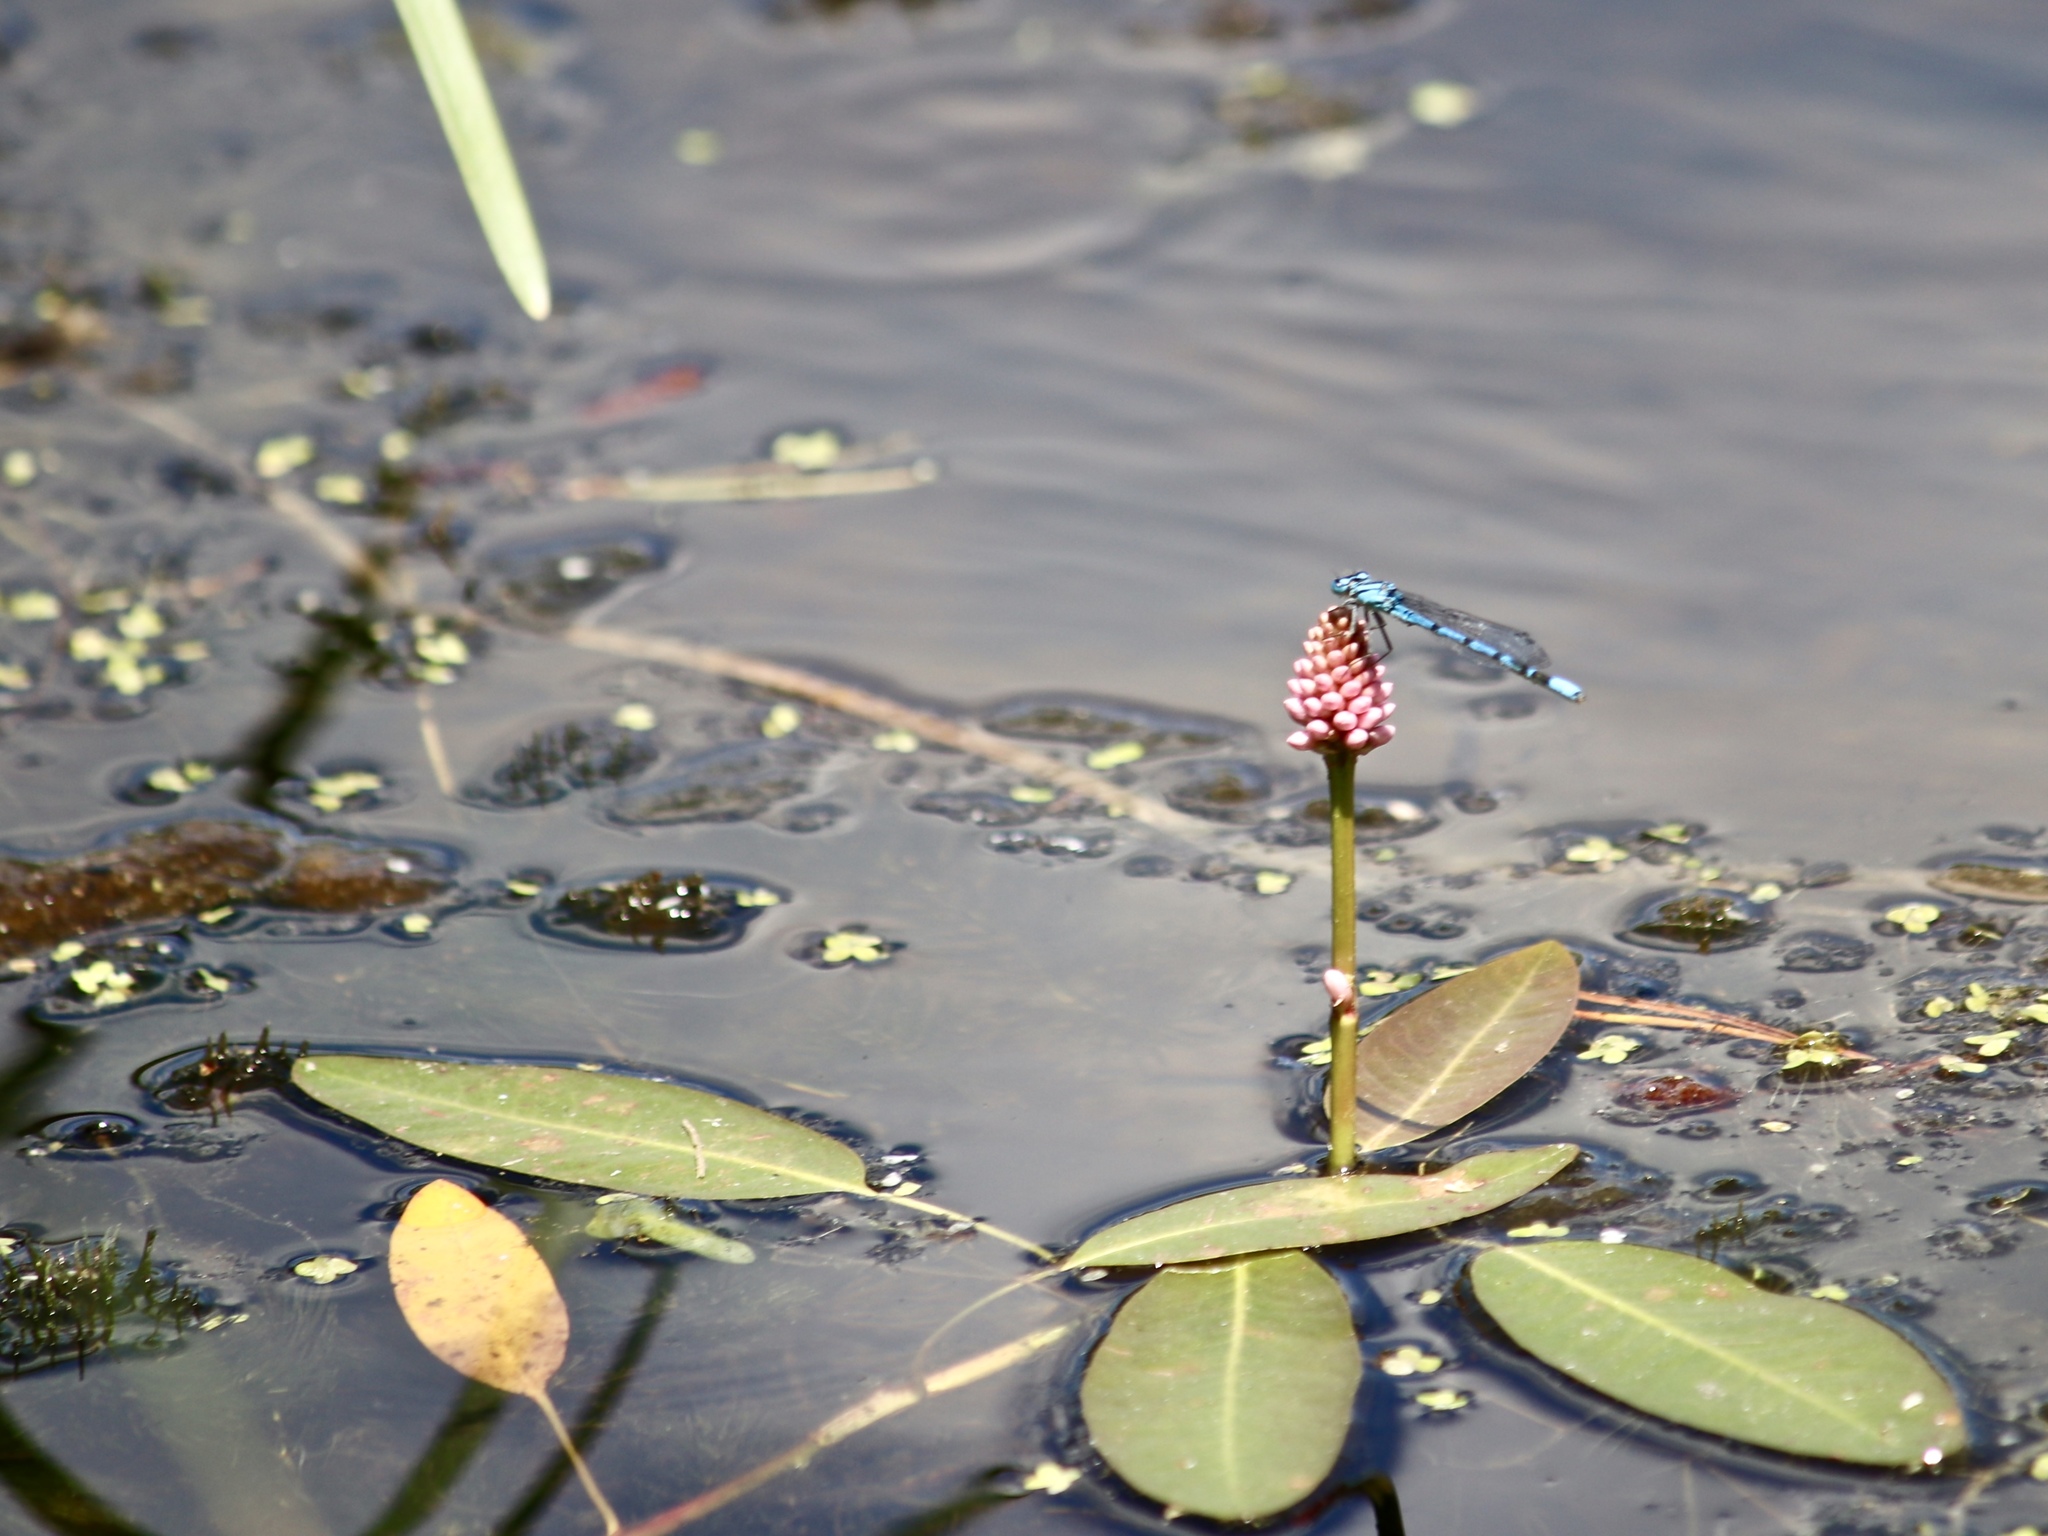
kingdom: Plantae
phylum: Tracheophyta
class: Magnoliopsida
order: Caryophyllales
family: Polygonaceae
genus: Persicaria
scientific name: Persicaria amphibia
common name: Amphibious bistort
